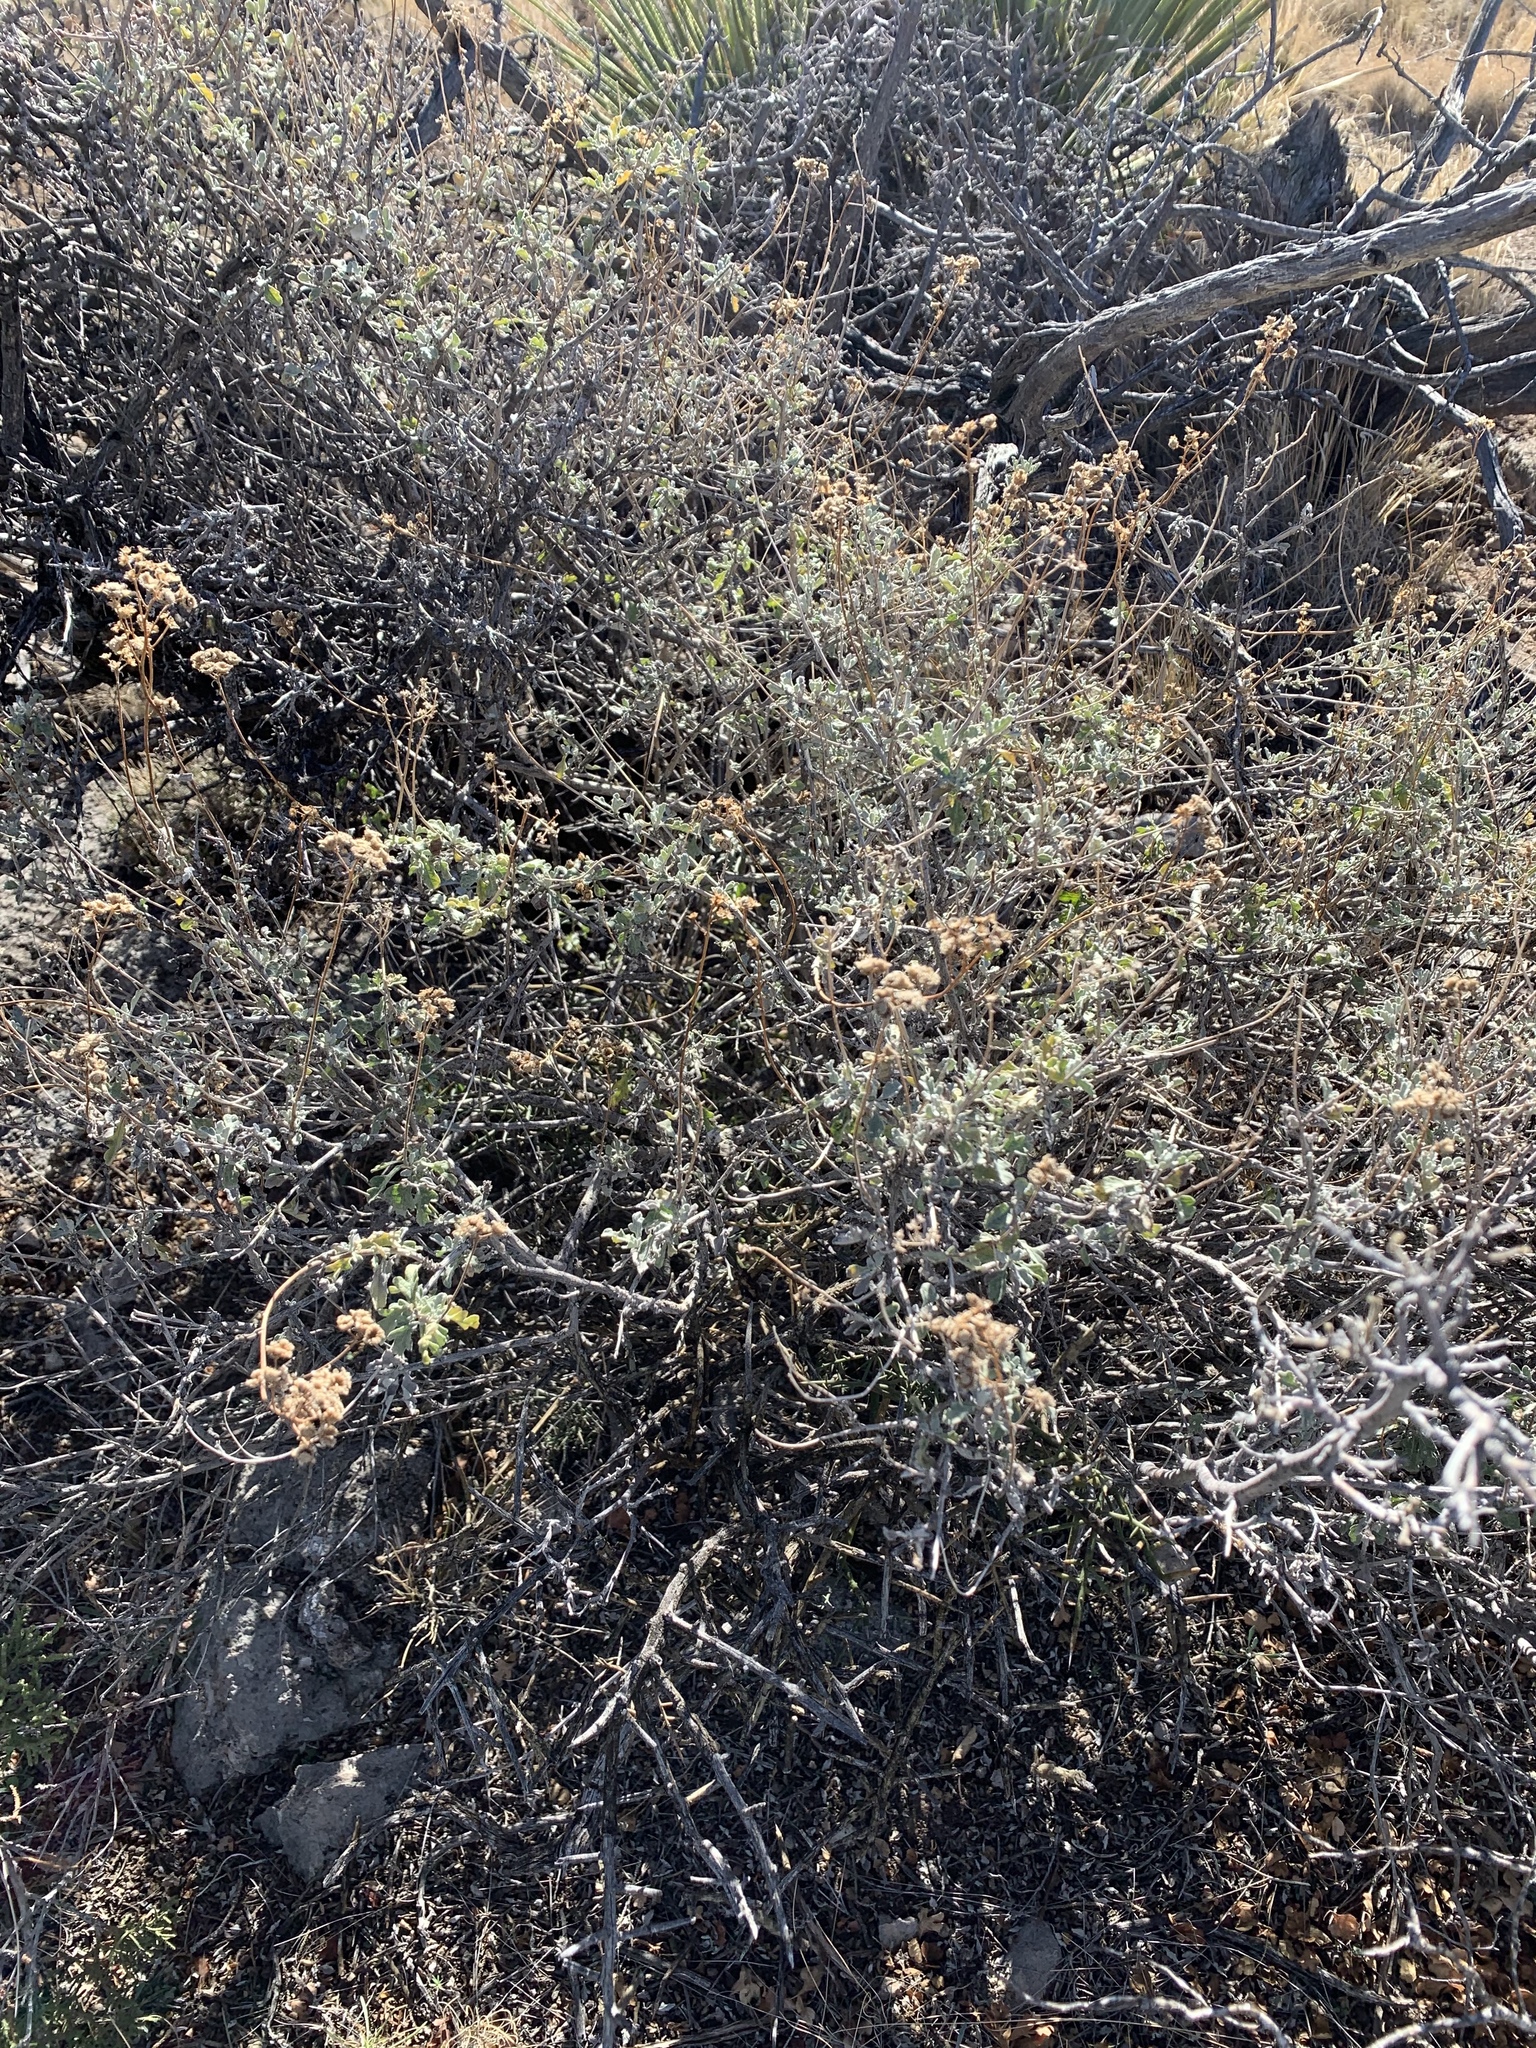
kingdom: Plantae
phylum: Tracheophyta
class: Magnoliopsida
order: Asterales
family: Asteraceae
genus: Parthenium
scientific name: Parthenium incanum
